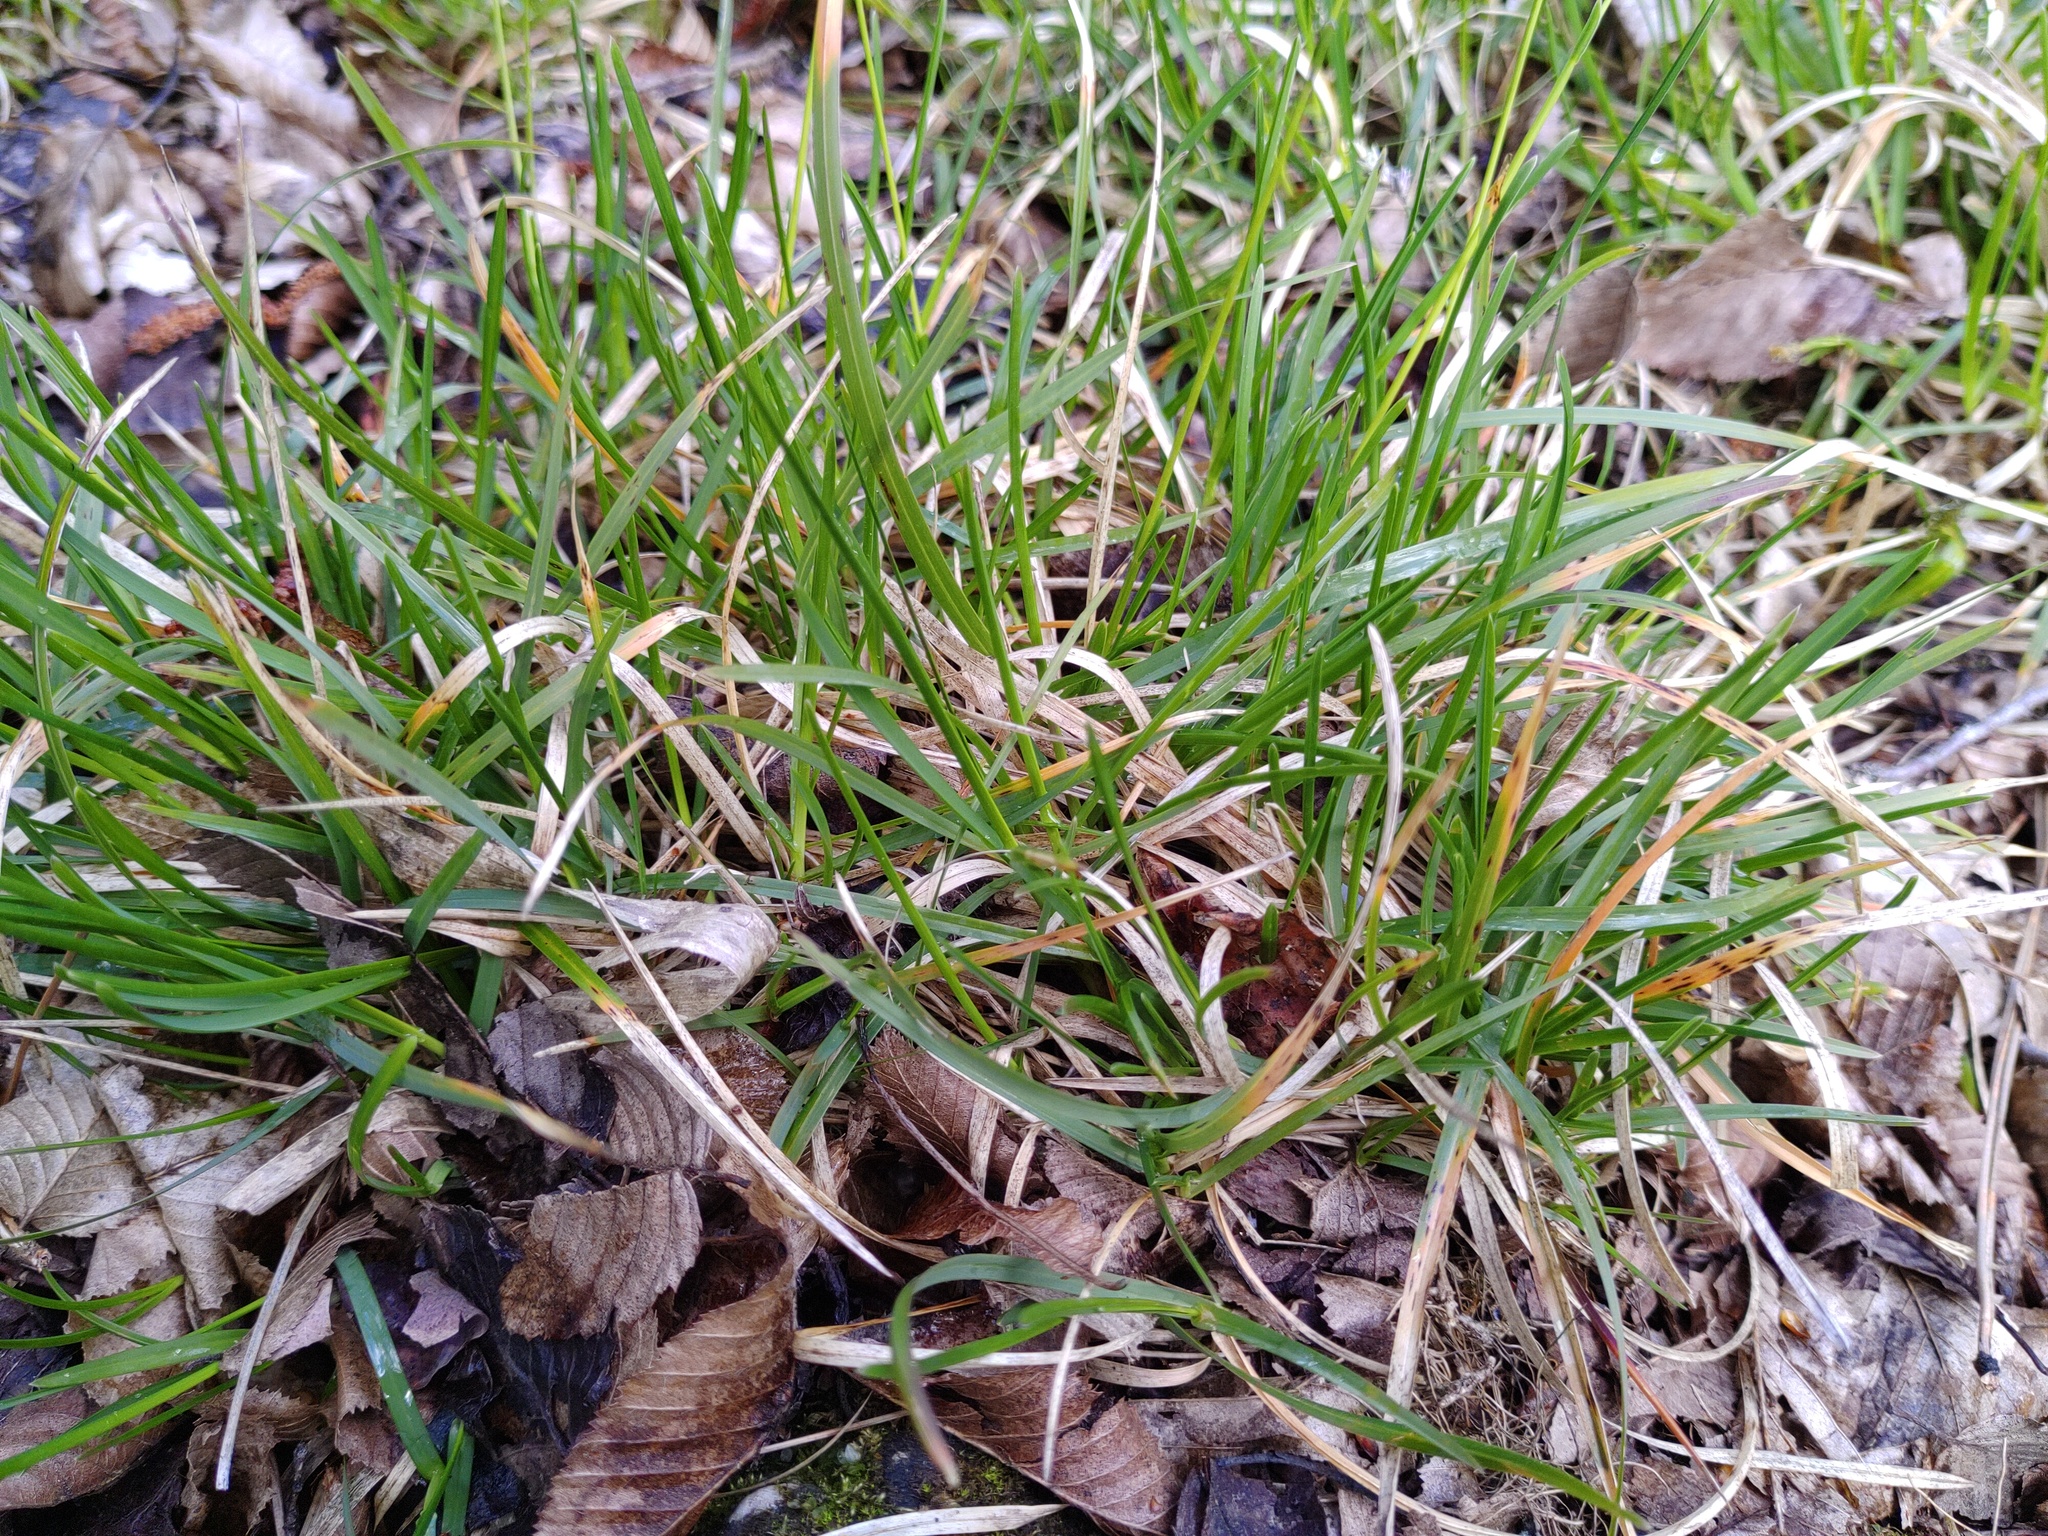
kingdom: Plantae
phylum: Tracheophyta
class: Liliopsida
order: Poales
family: Poaceae
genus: Sesleria
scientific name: Sesleria caerulea
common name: Blue moor-grass
